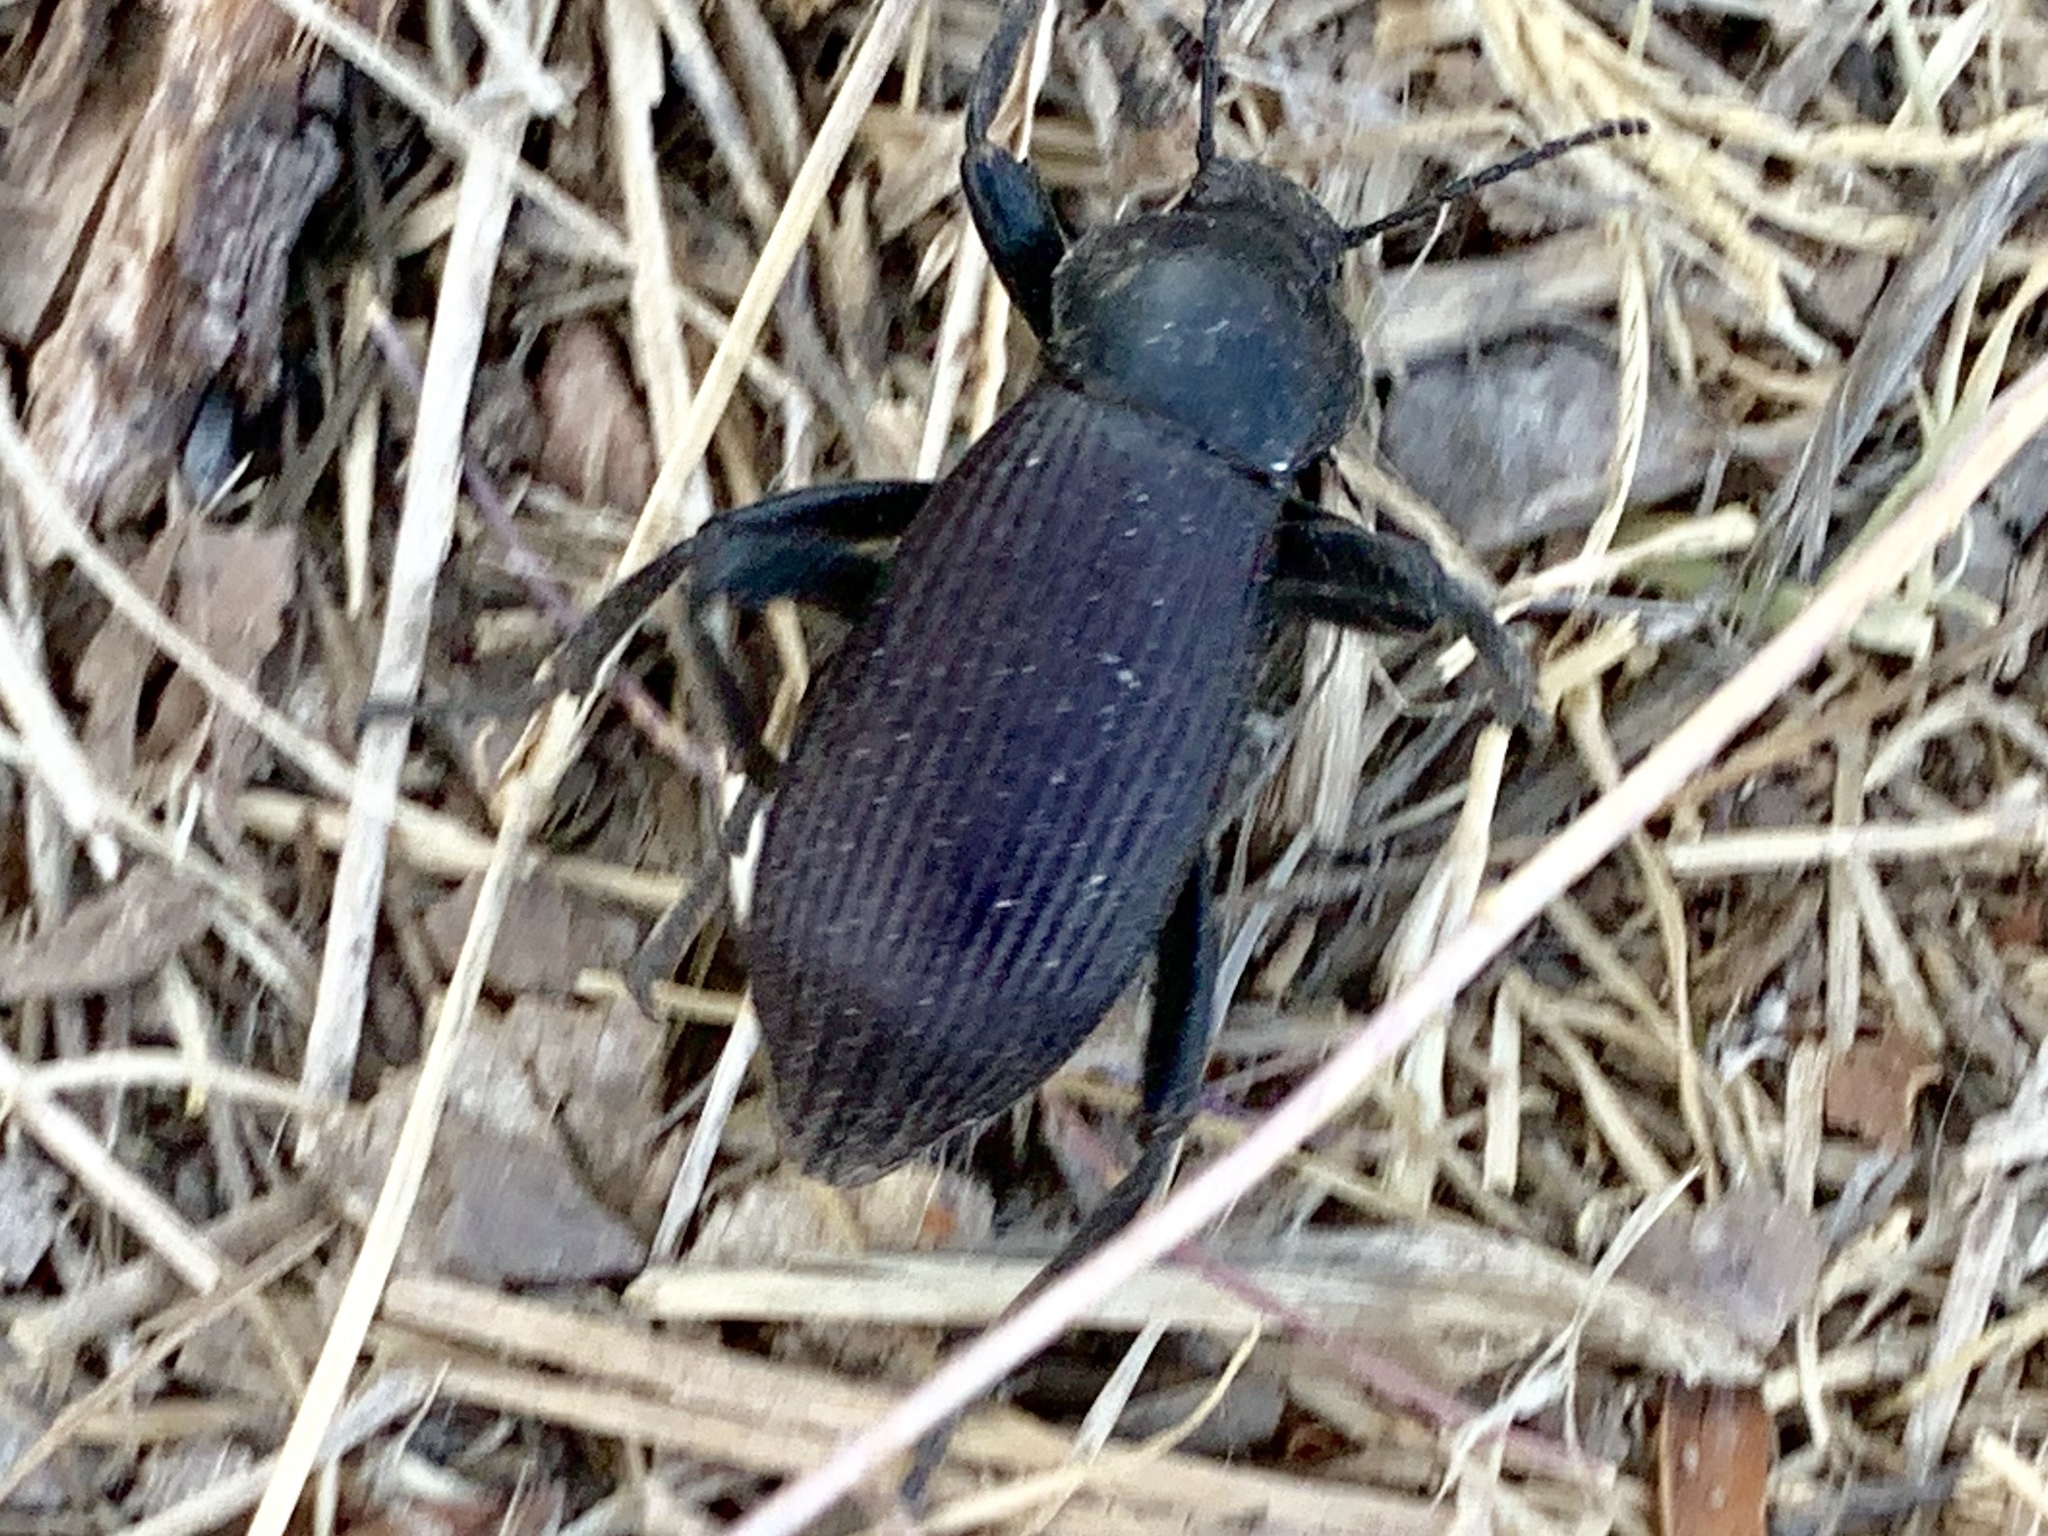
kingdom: Animalia
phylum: Arthropoda
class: Insecta
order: Coleoptera
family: Tenebrionidae
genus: Eleodes
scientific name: Eleodes obscura
